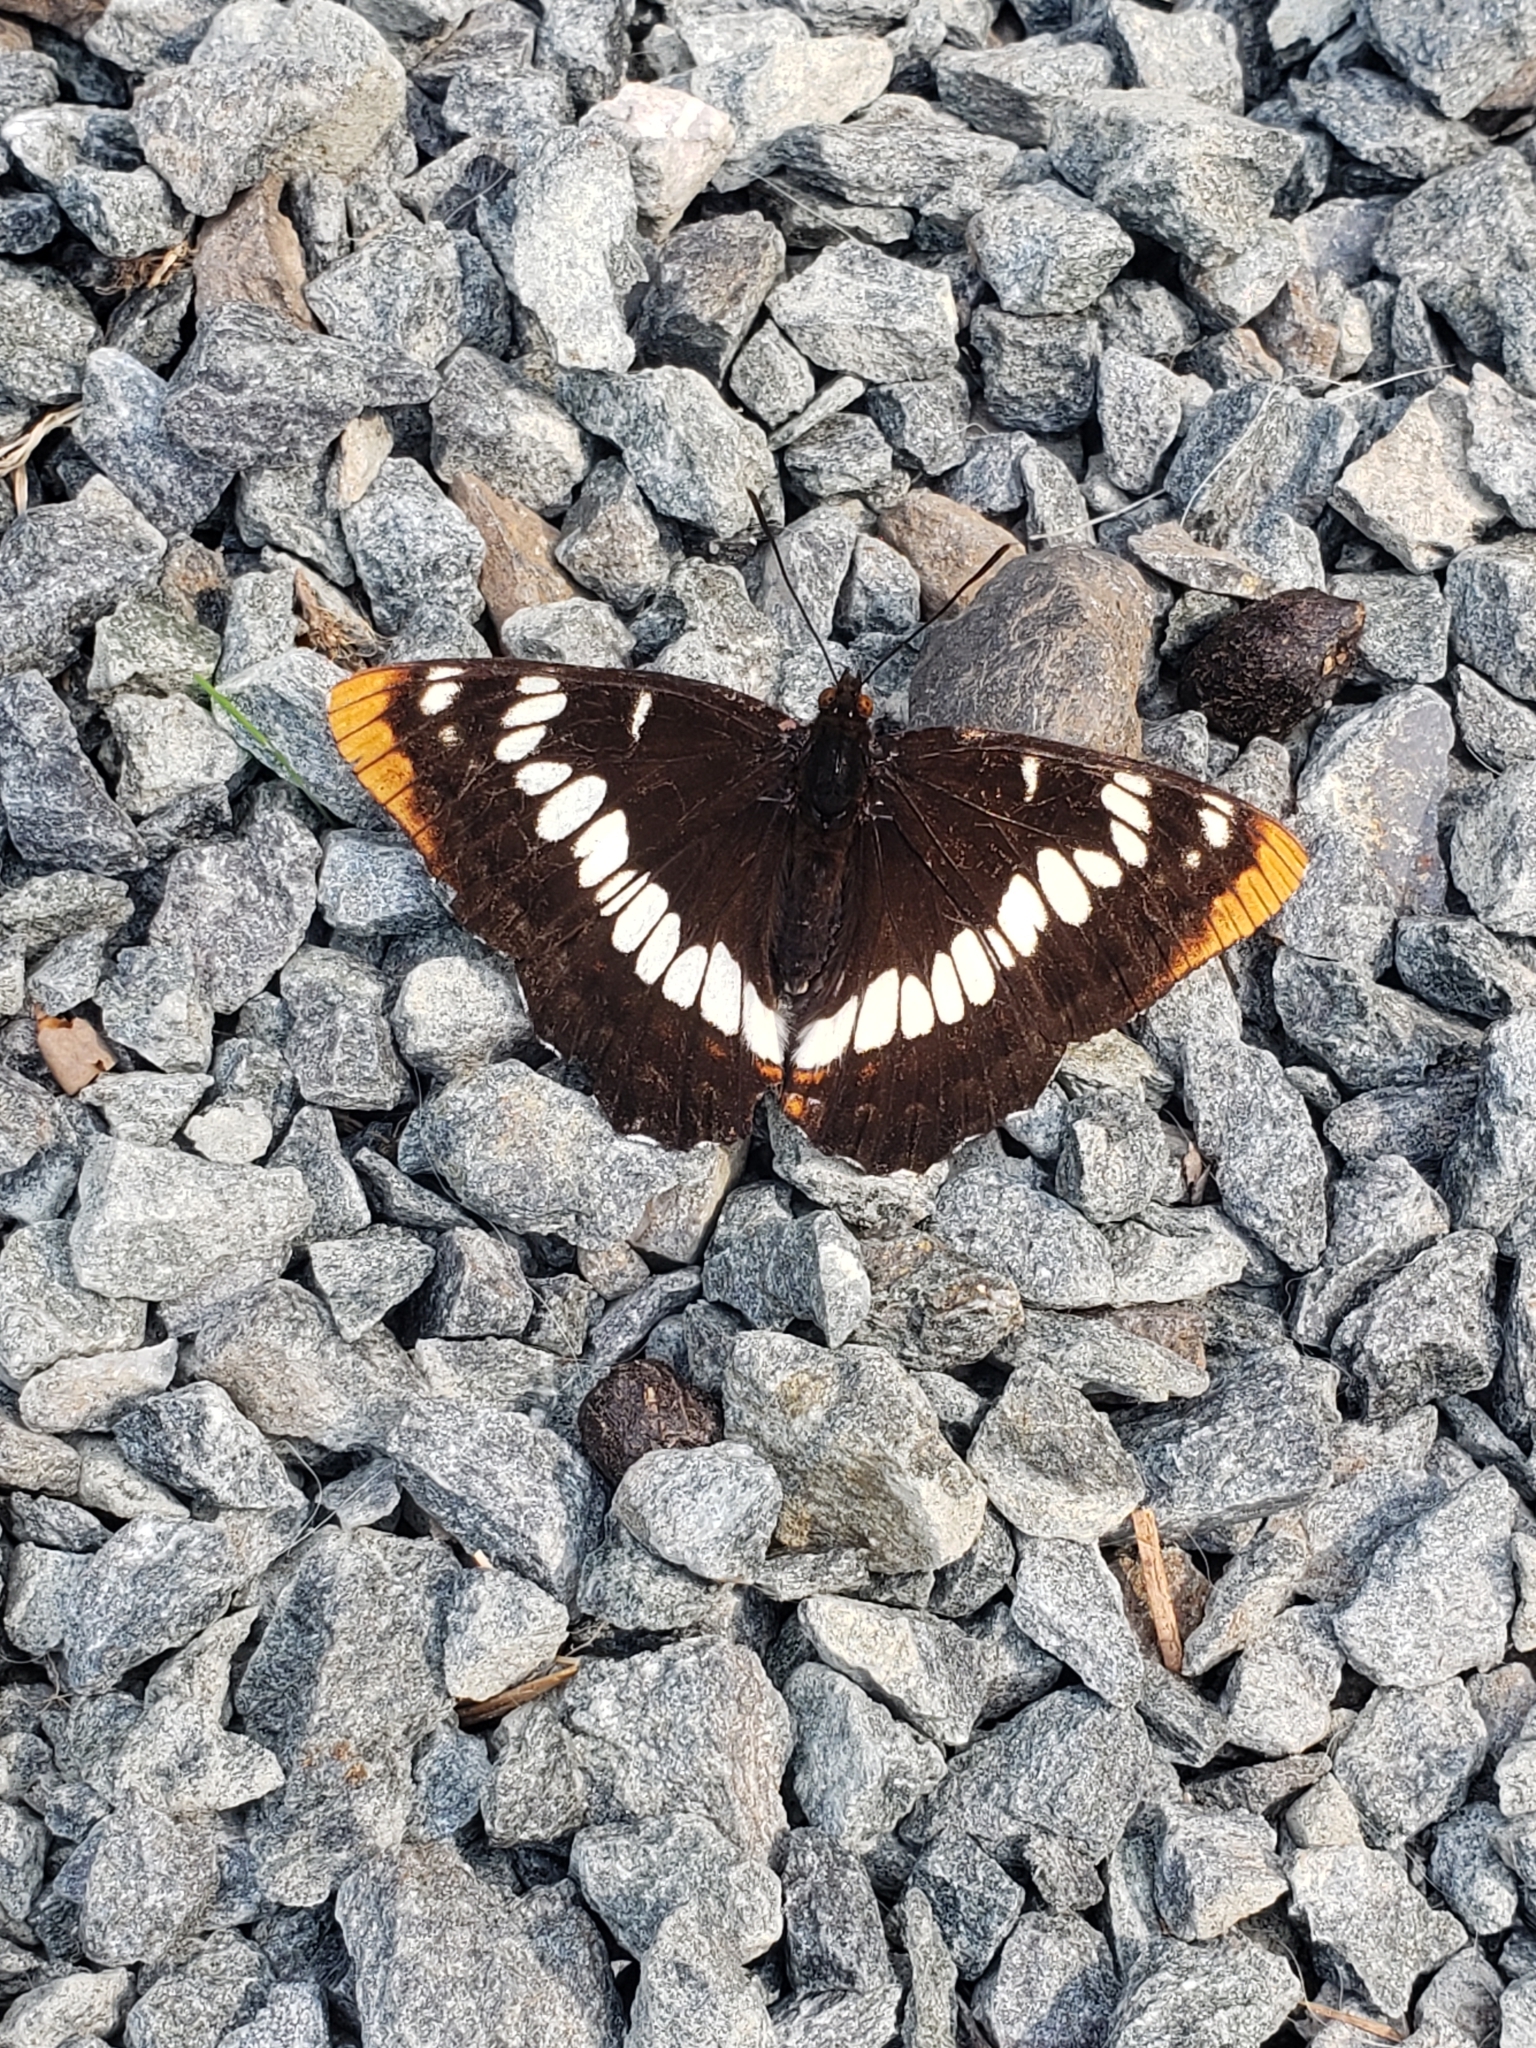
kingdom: Animalia
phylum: Arthropoda
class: Insecta
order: Lepidoptera
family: Nymphalidae
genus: Limenitis
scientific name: Limenitis lorquini
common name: Lorquin's admiral
